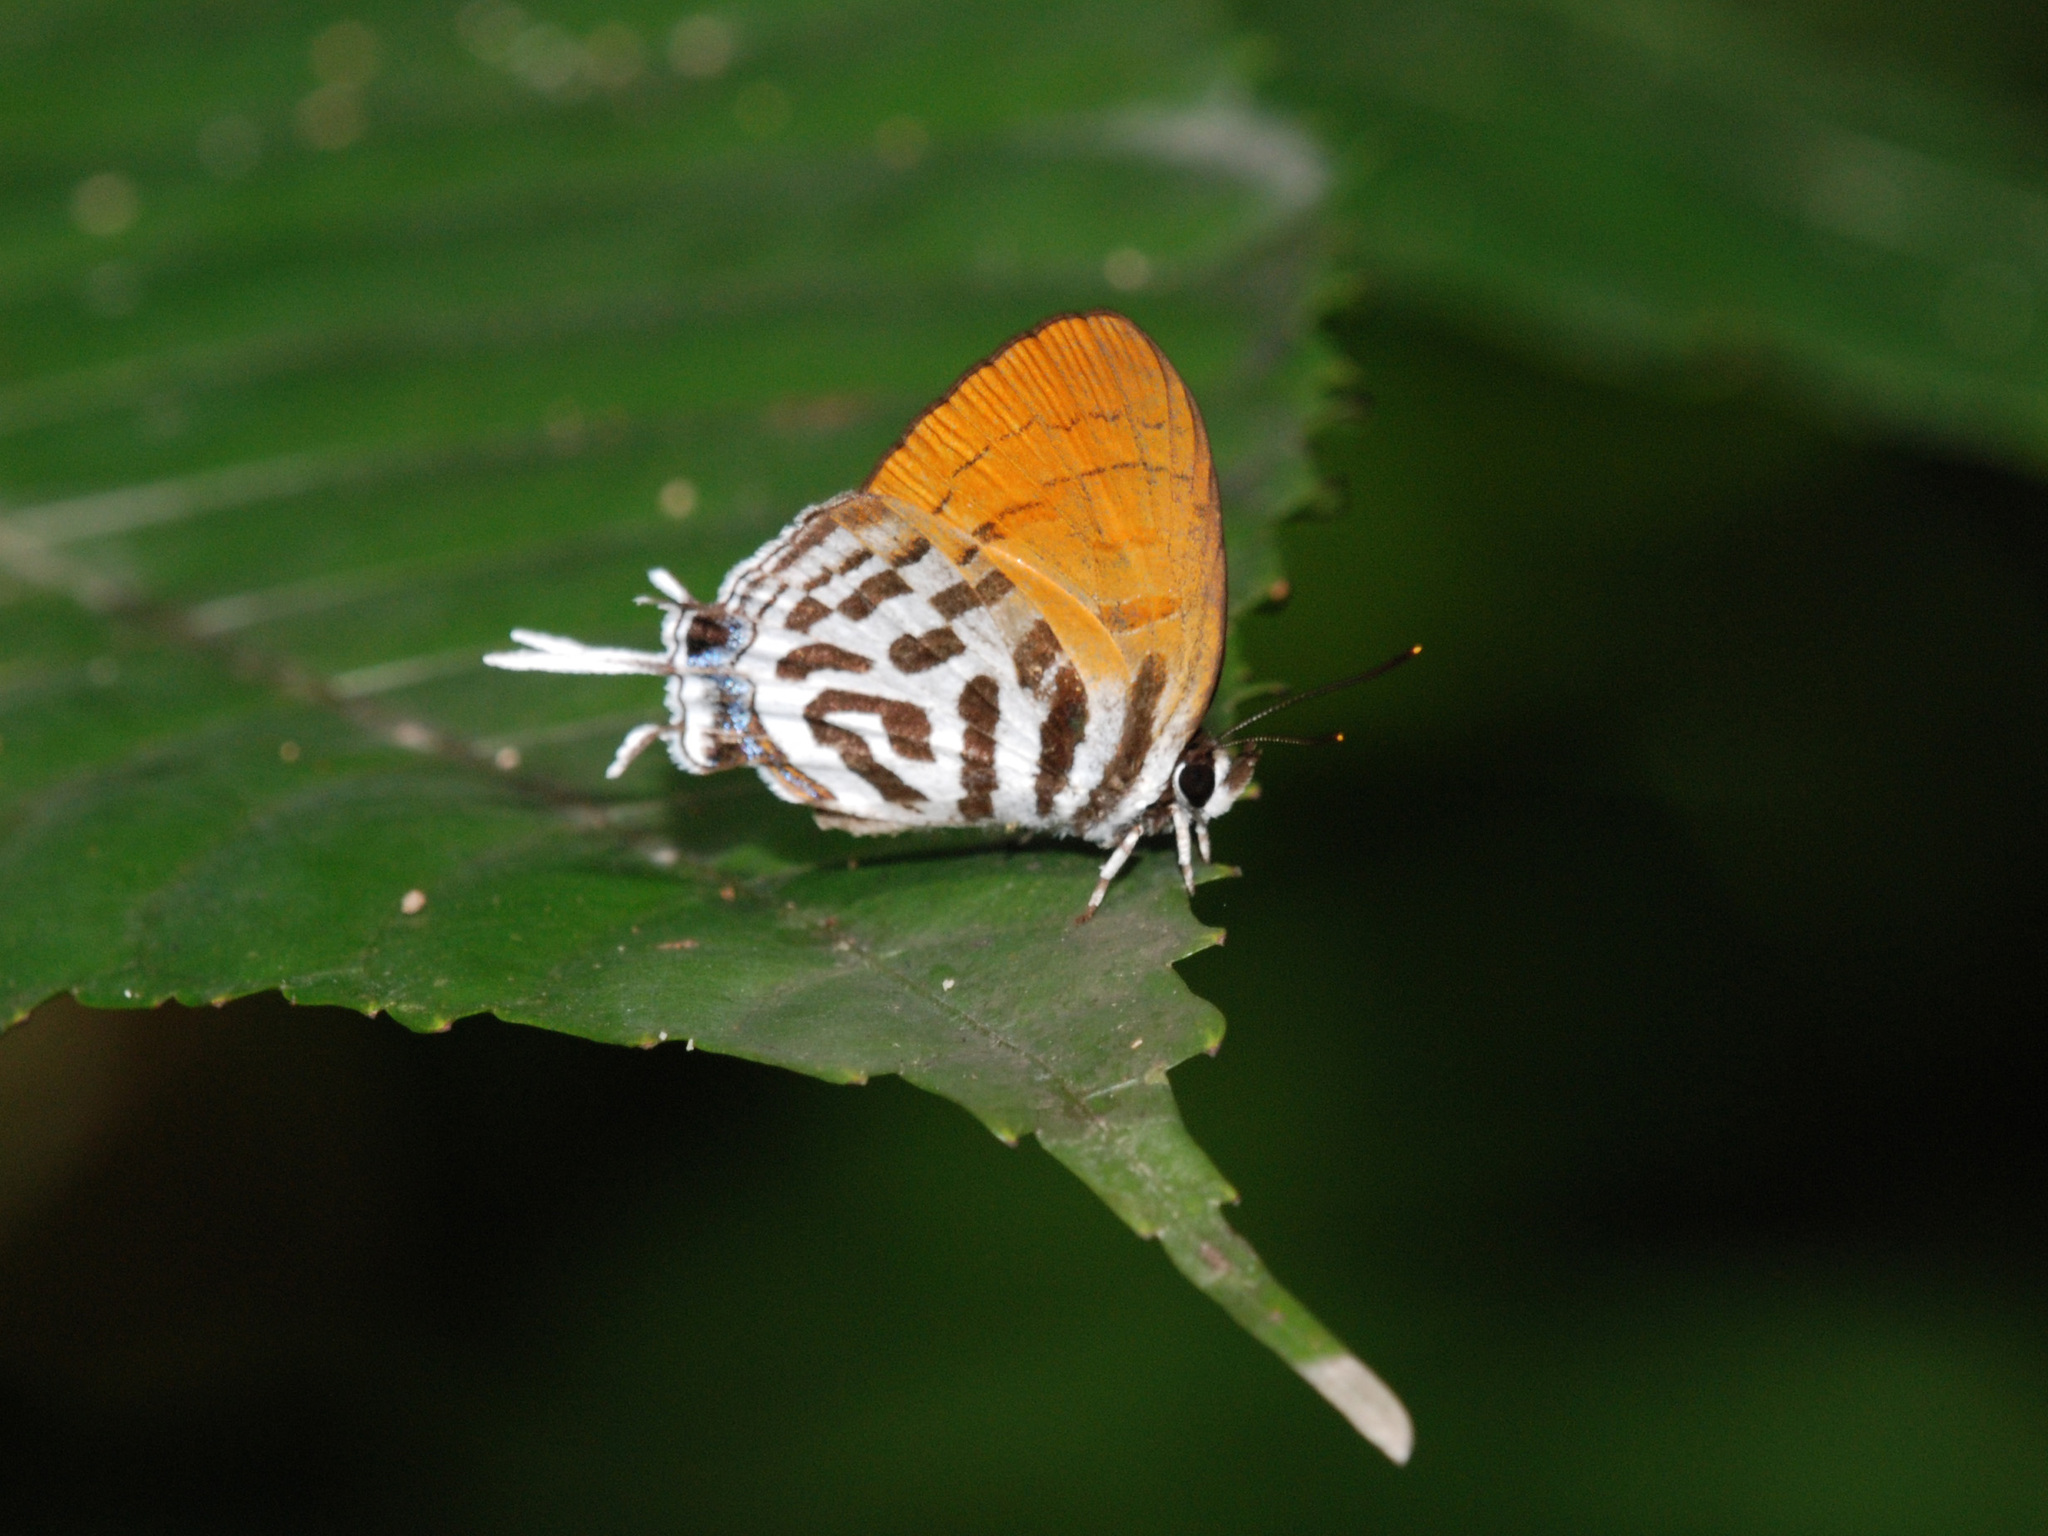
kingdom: Animalia
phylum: Arthropoda
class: Insecta
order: Lepidoptera
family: Lycaenidae
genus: Drupadia
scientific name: Drupadia ravindra
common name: Common posy
